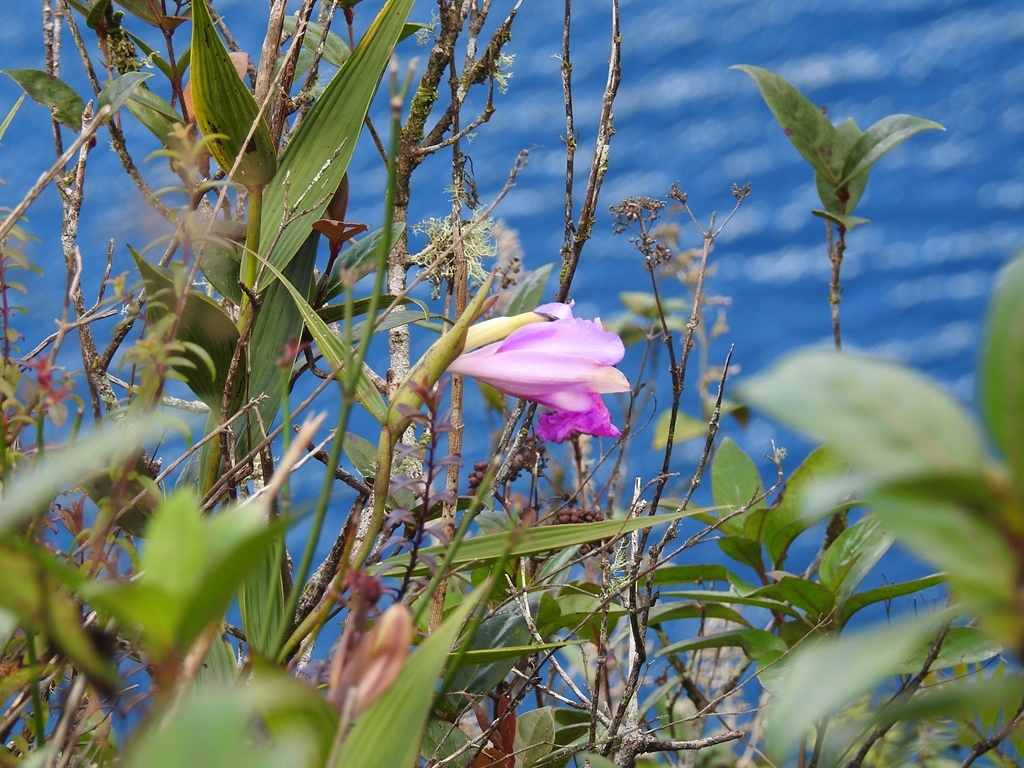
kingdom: Plantae
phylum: Tracheophyta
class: Liliopsida
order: Asparagales
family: Orchidaceae
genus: Sobralia
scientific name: Sobralia macrantha
